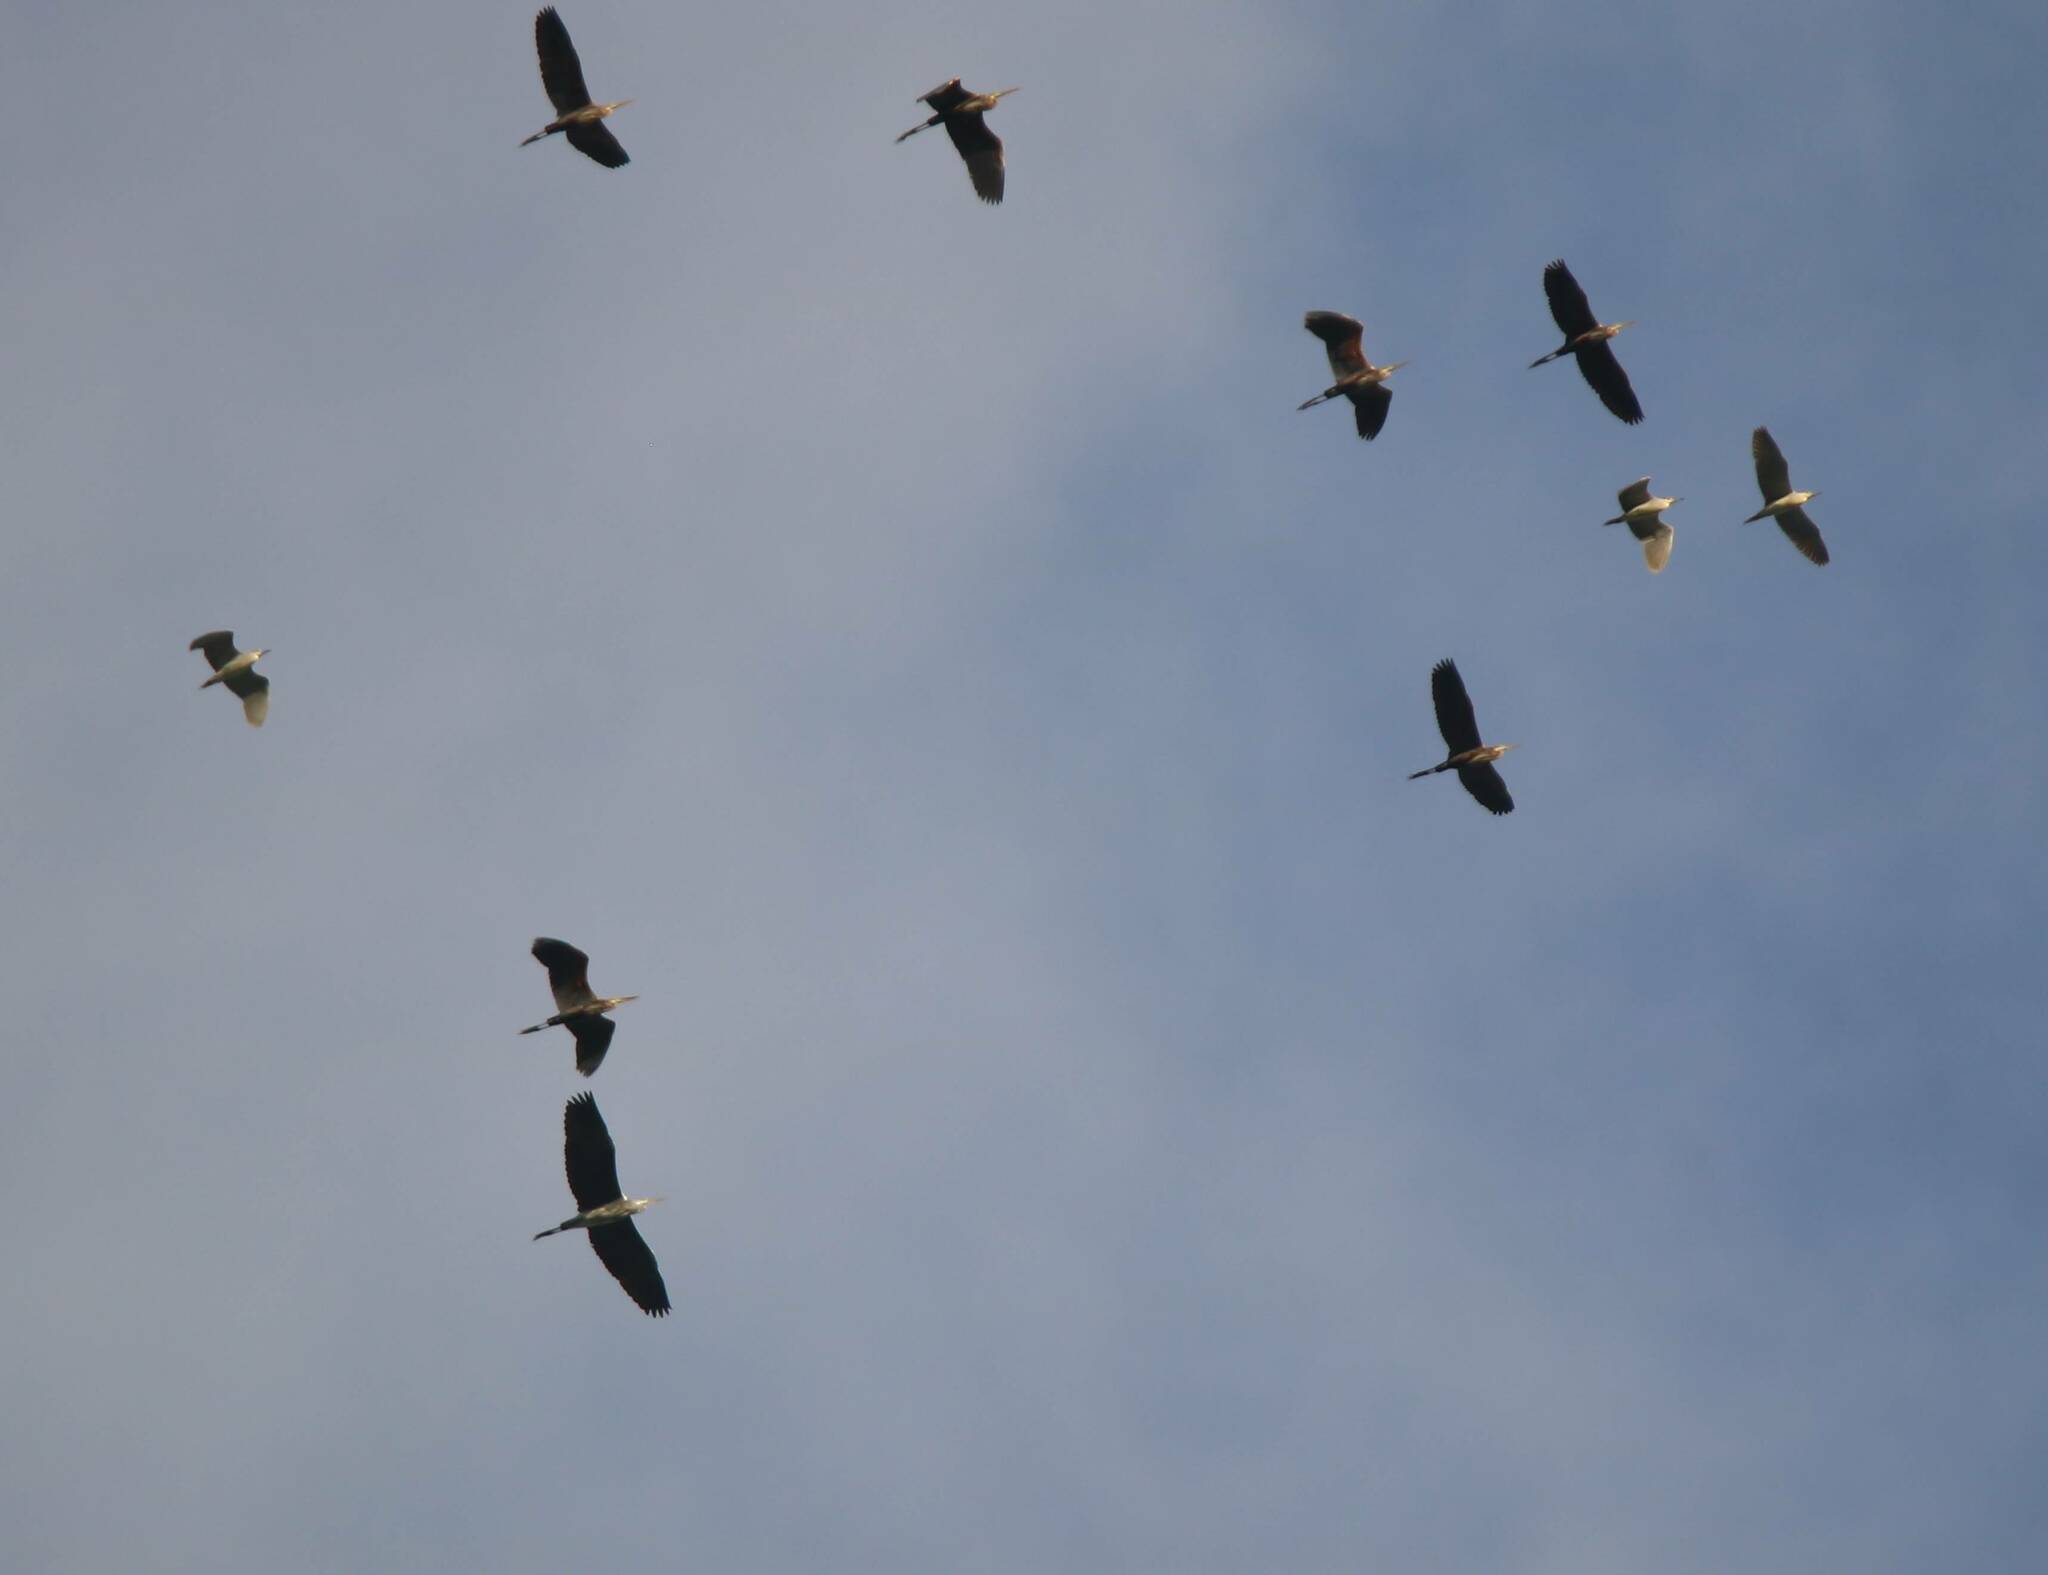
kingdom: Animalia
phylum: Chordata
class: Aves
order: Pelecaniformes
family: Ardeidae
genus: Ardea
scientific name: Ardea purpurea
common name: Purple heron
